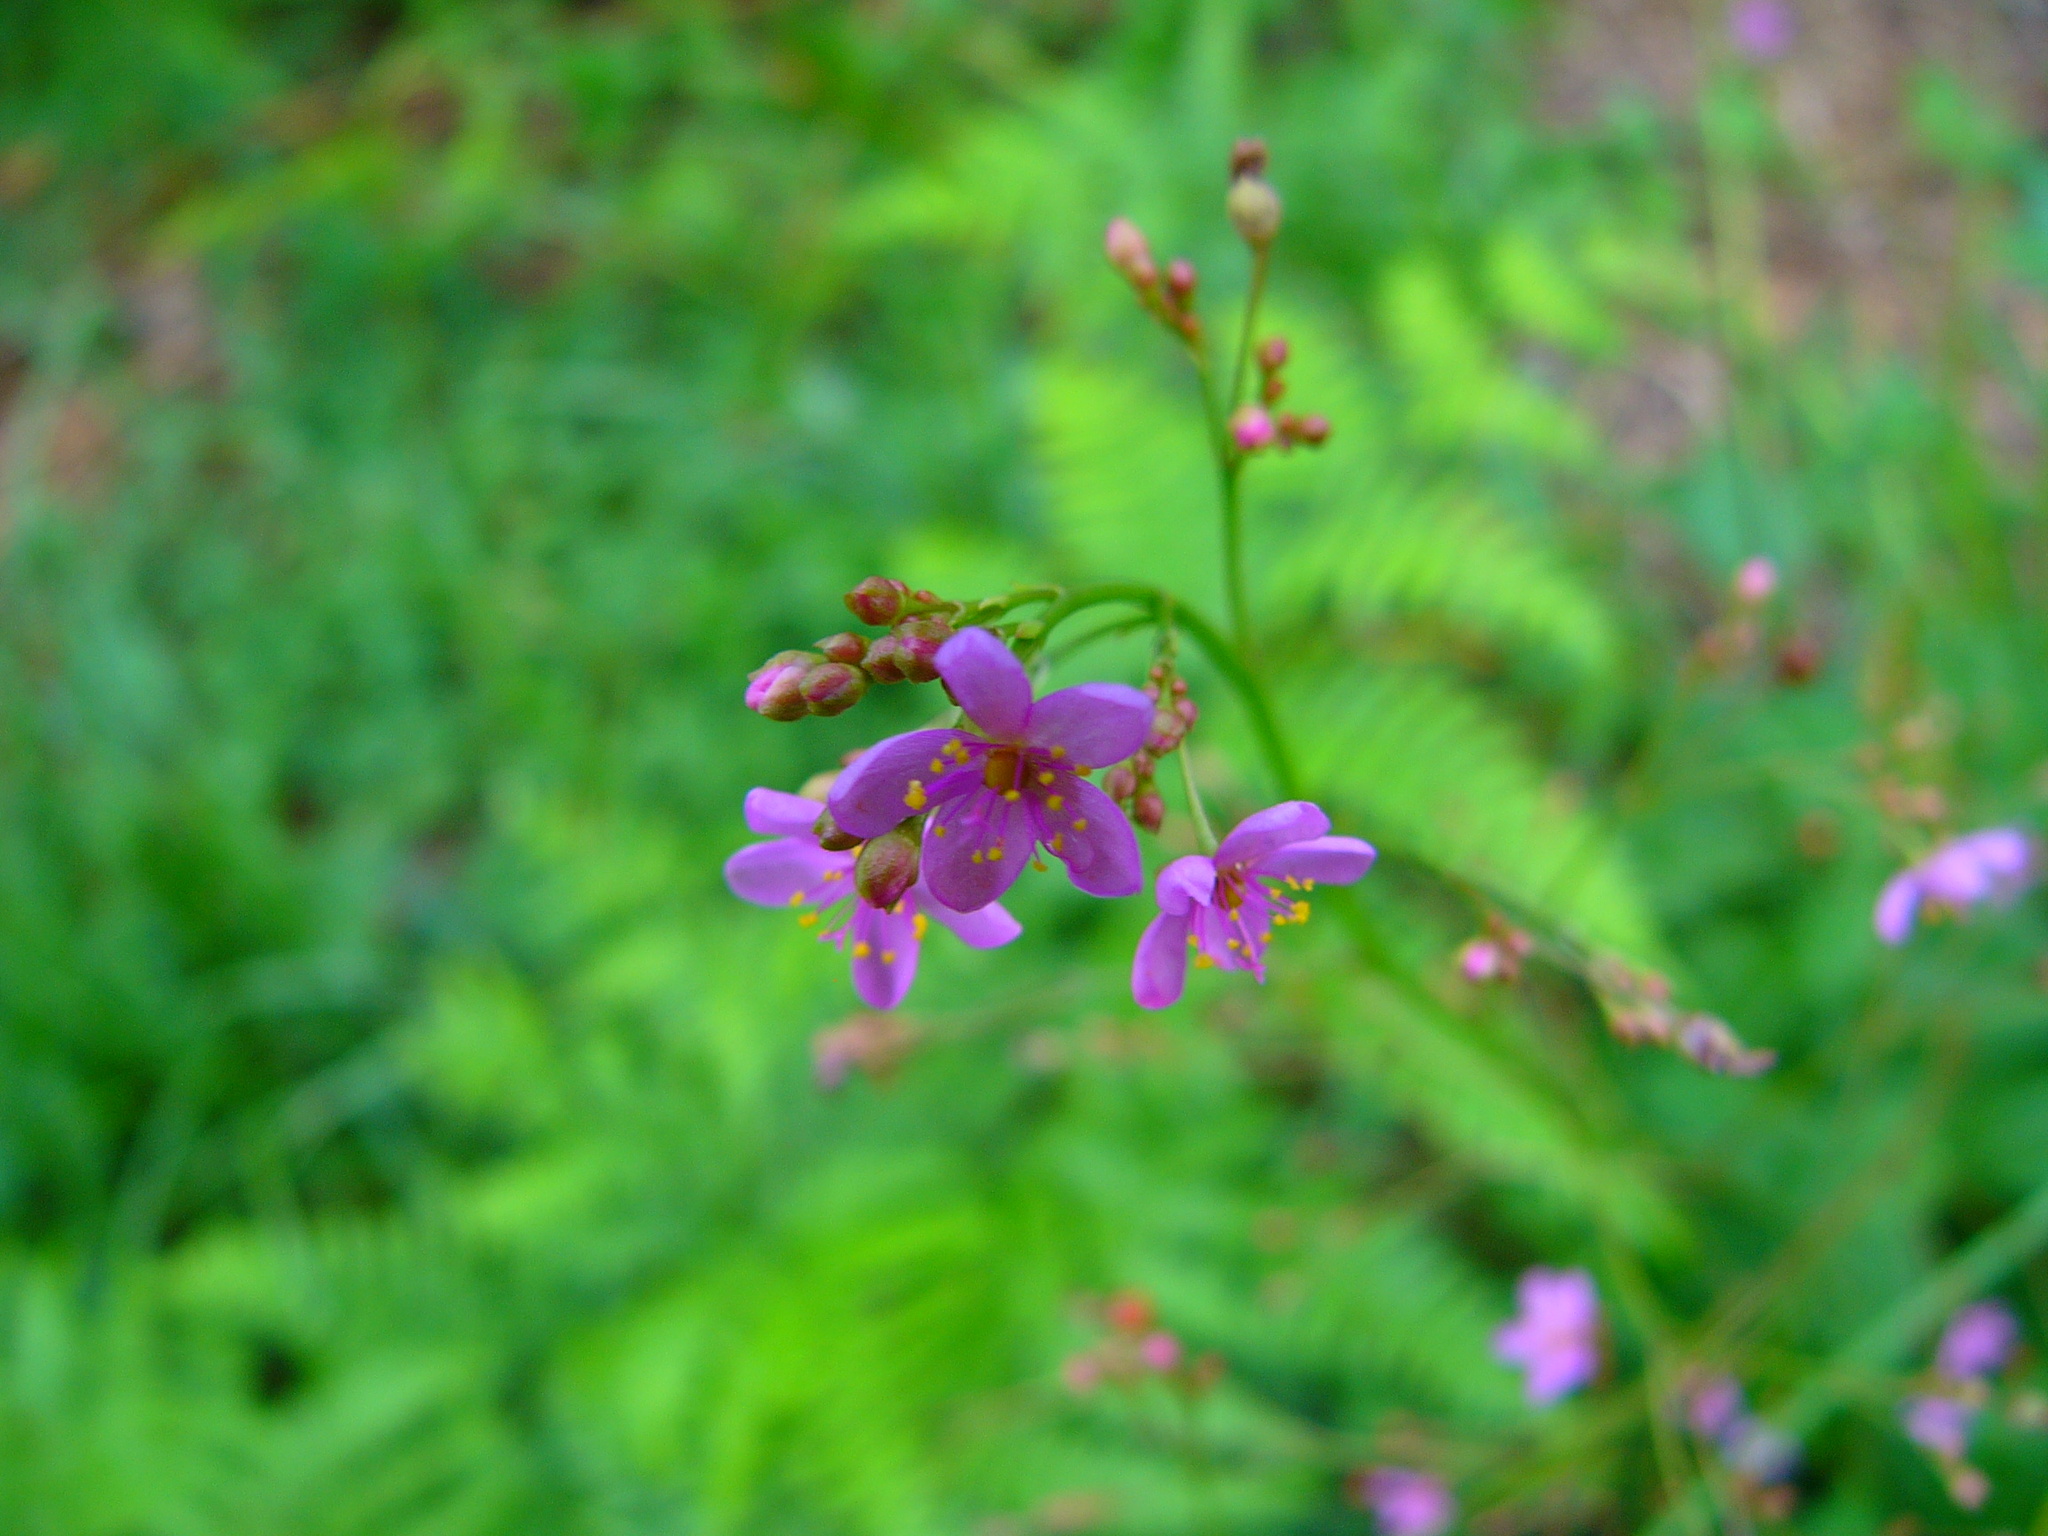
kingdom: Plantae
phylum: Tracheophyta
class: Magnoliopsida
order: Caryophyllales
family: Talinaceae
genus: Talinum
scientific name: Talinum paniculatum
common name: Jewels of opar
